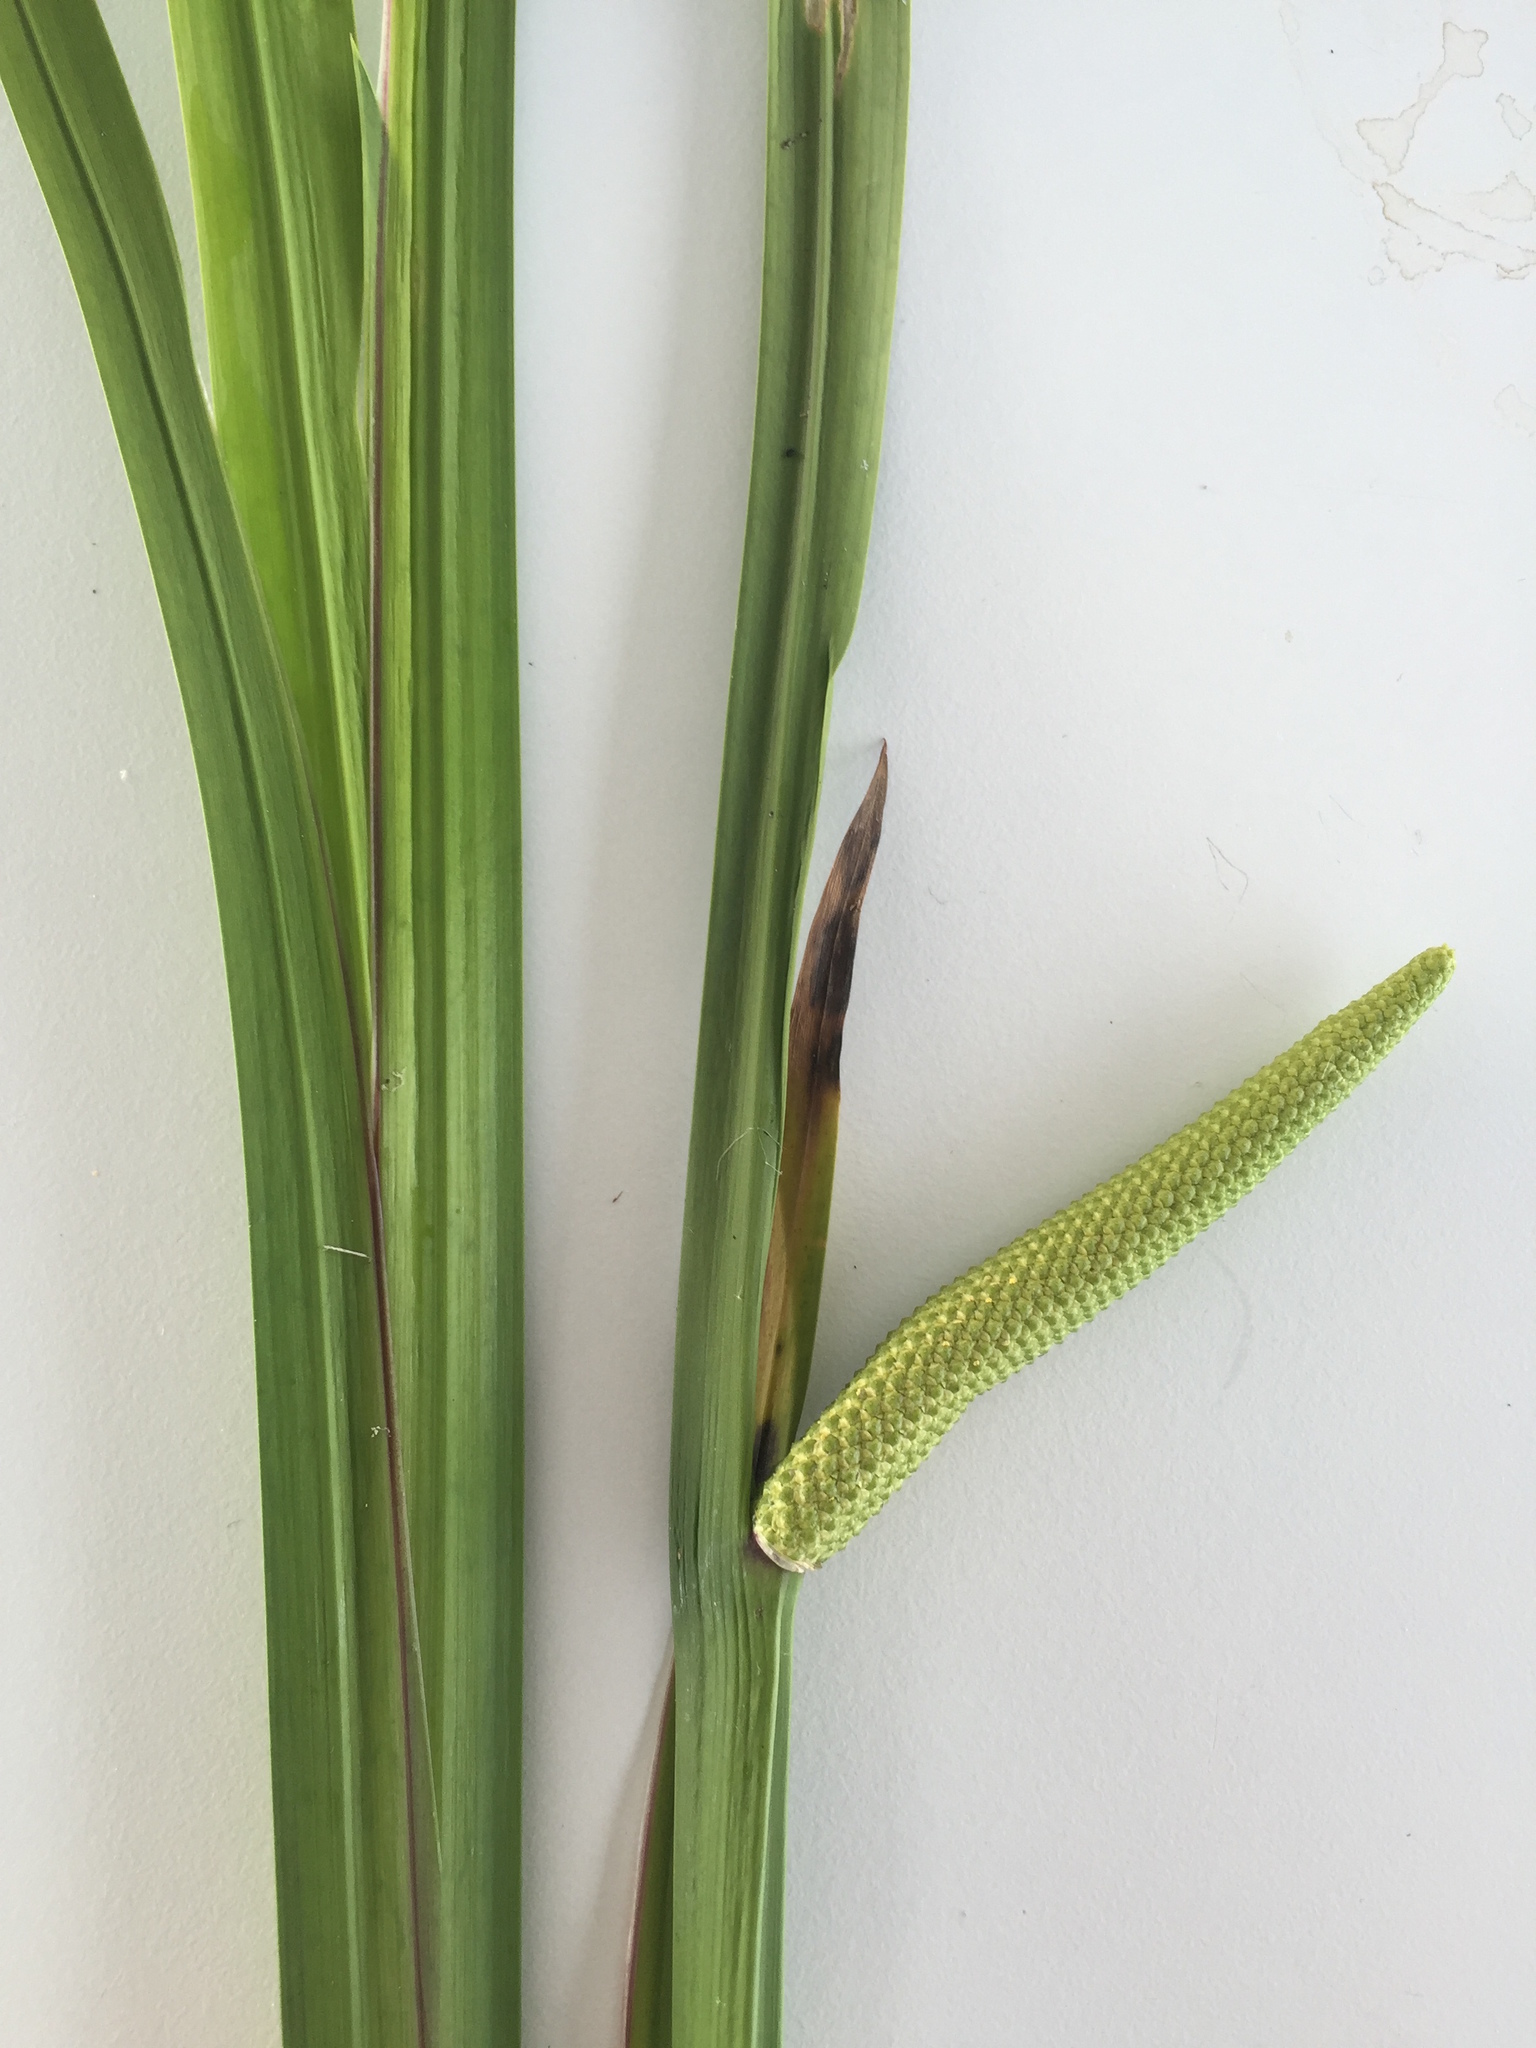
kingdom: Plantae
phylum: Tracheophyta
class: Liliopsida
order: Acorales
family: Acoraceae
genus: Acorus
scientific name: Acorus calamus
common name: Sweet-flag
